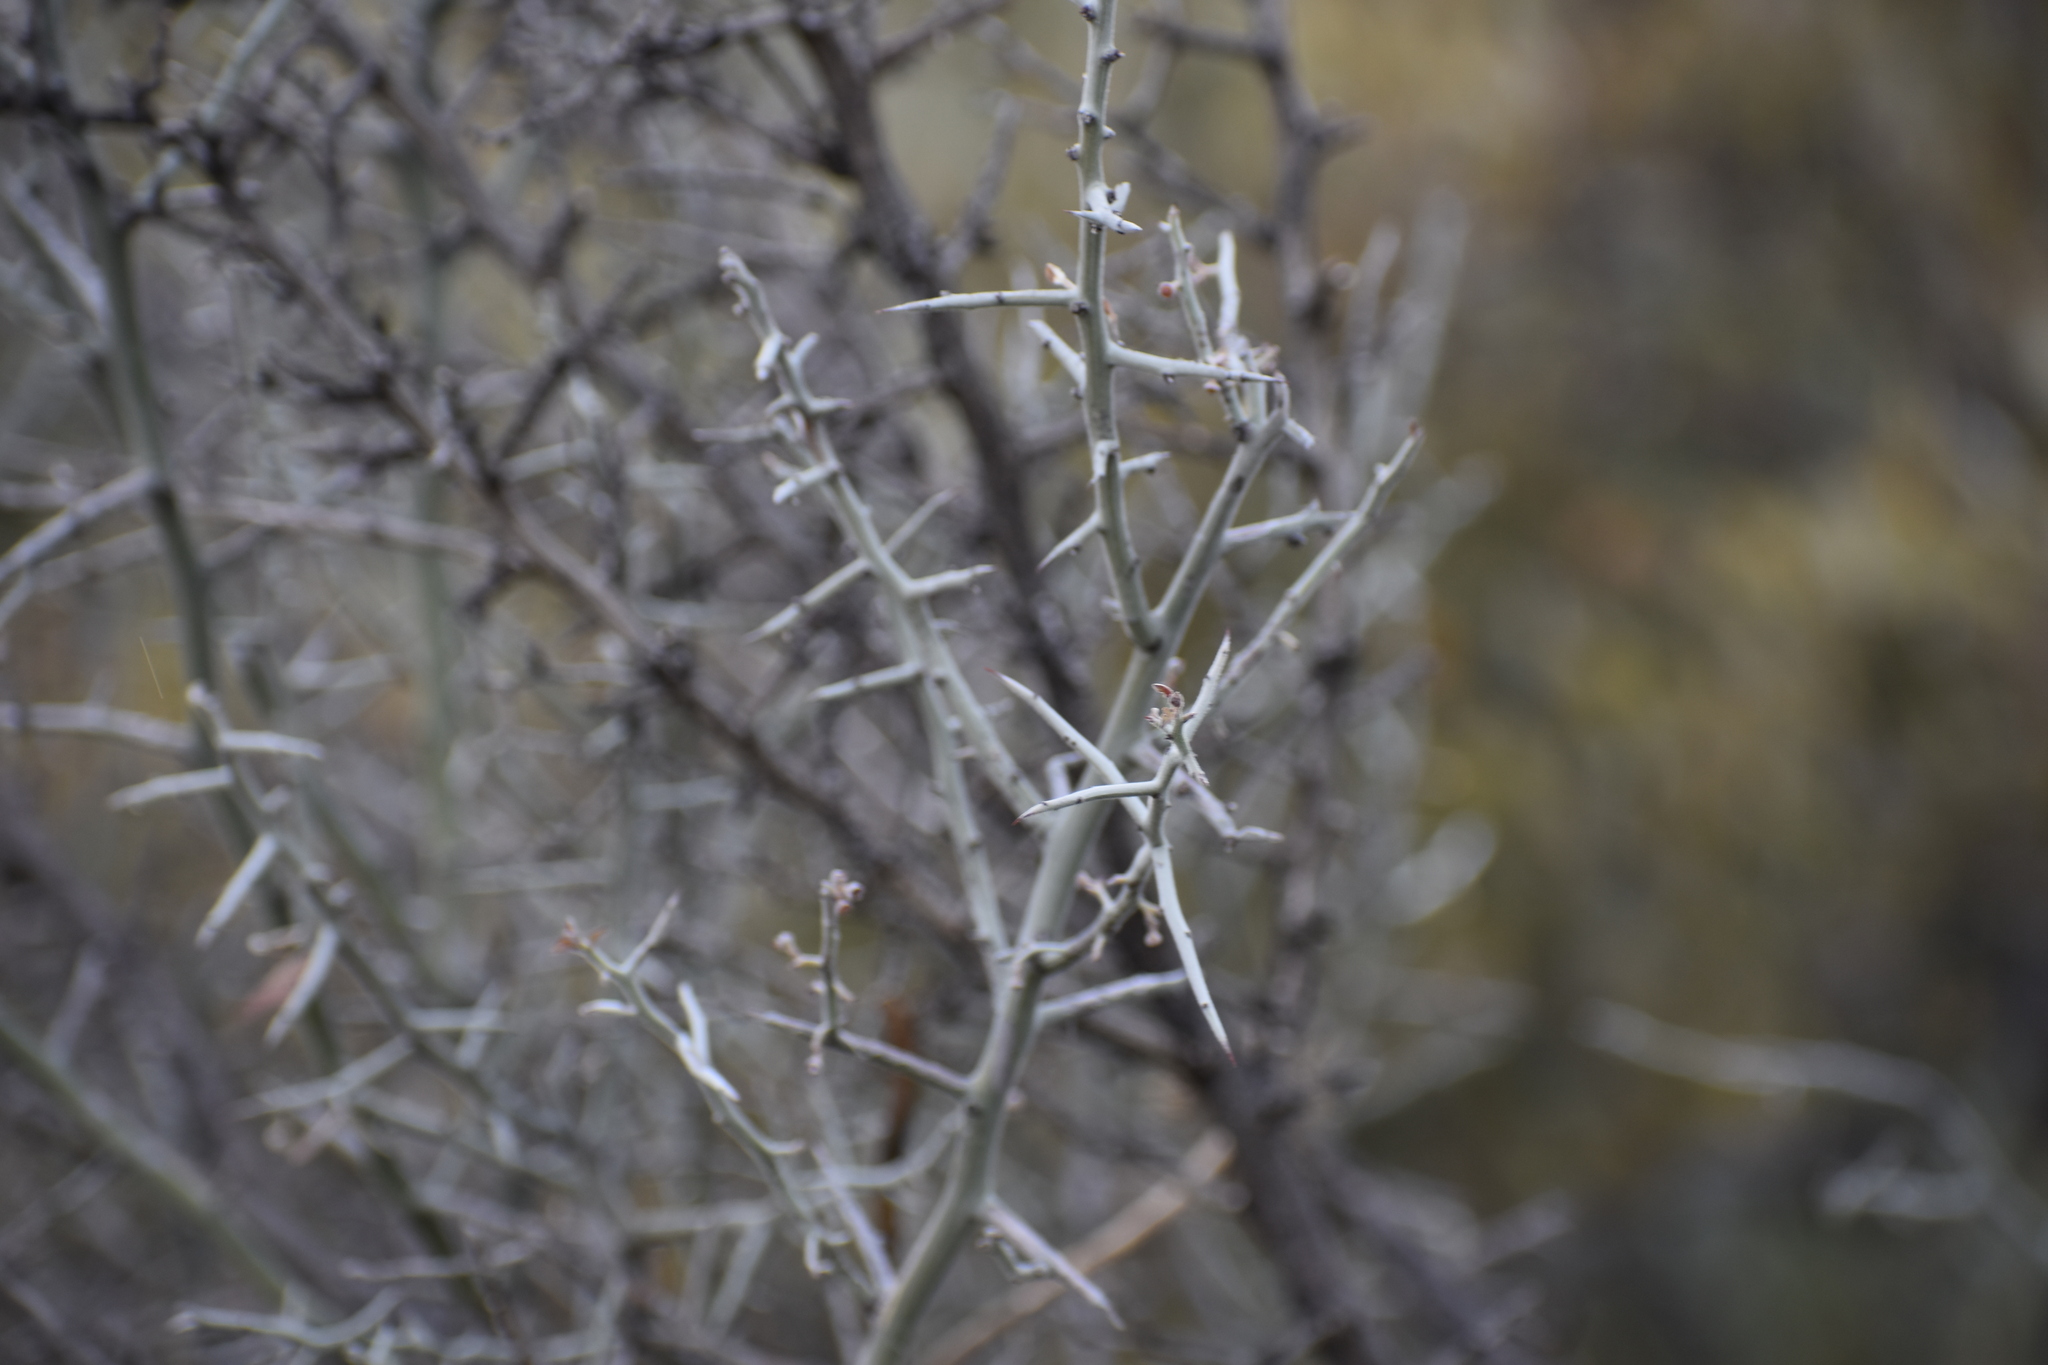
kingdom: Plantae
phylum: Tracheophyta
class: Magnoliopsida
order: Rosales
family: Rhamnaceae
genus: Sarcomphalus
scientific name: Sarcomphalus obtusifolius
